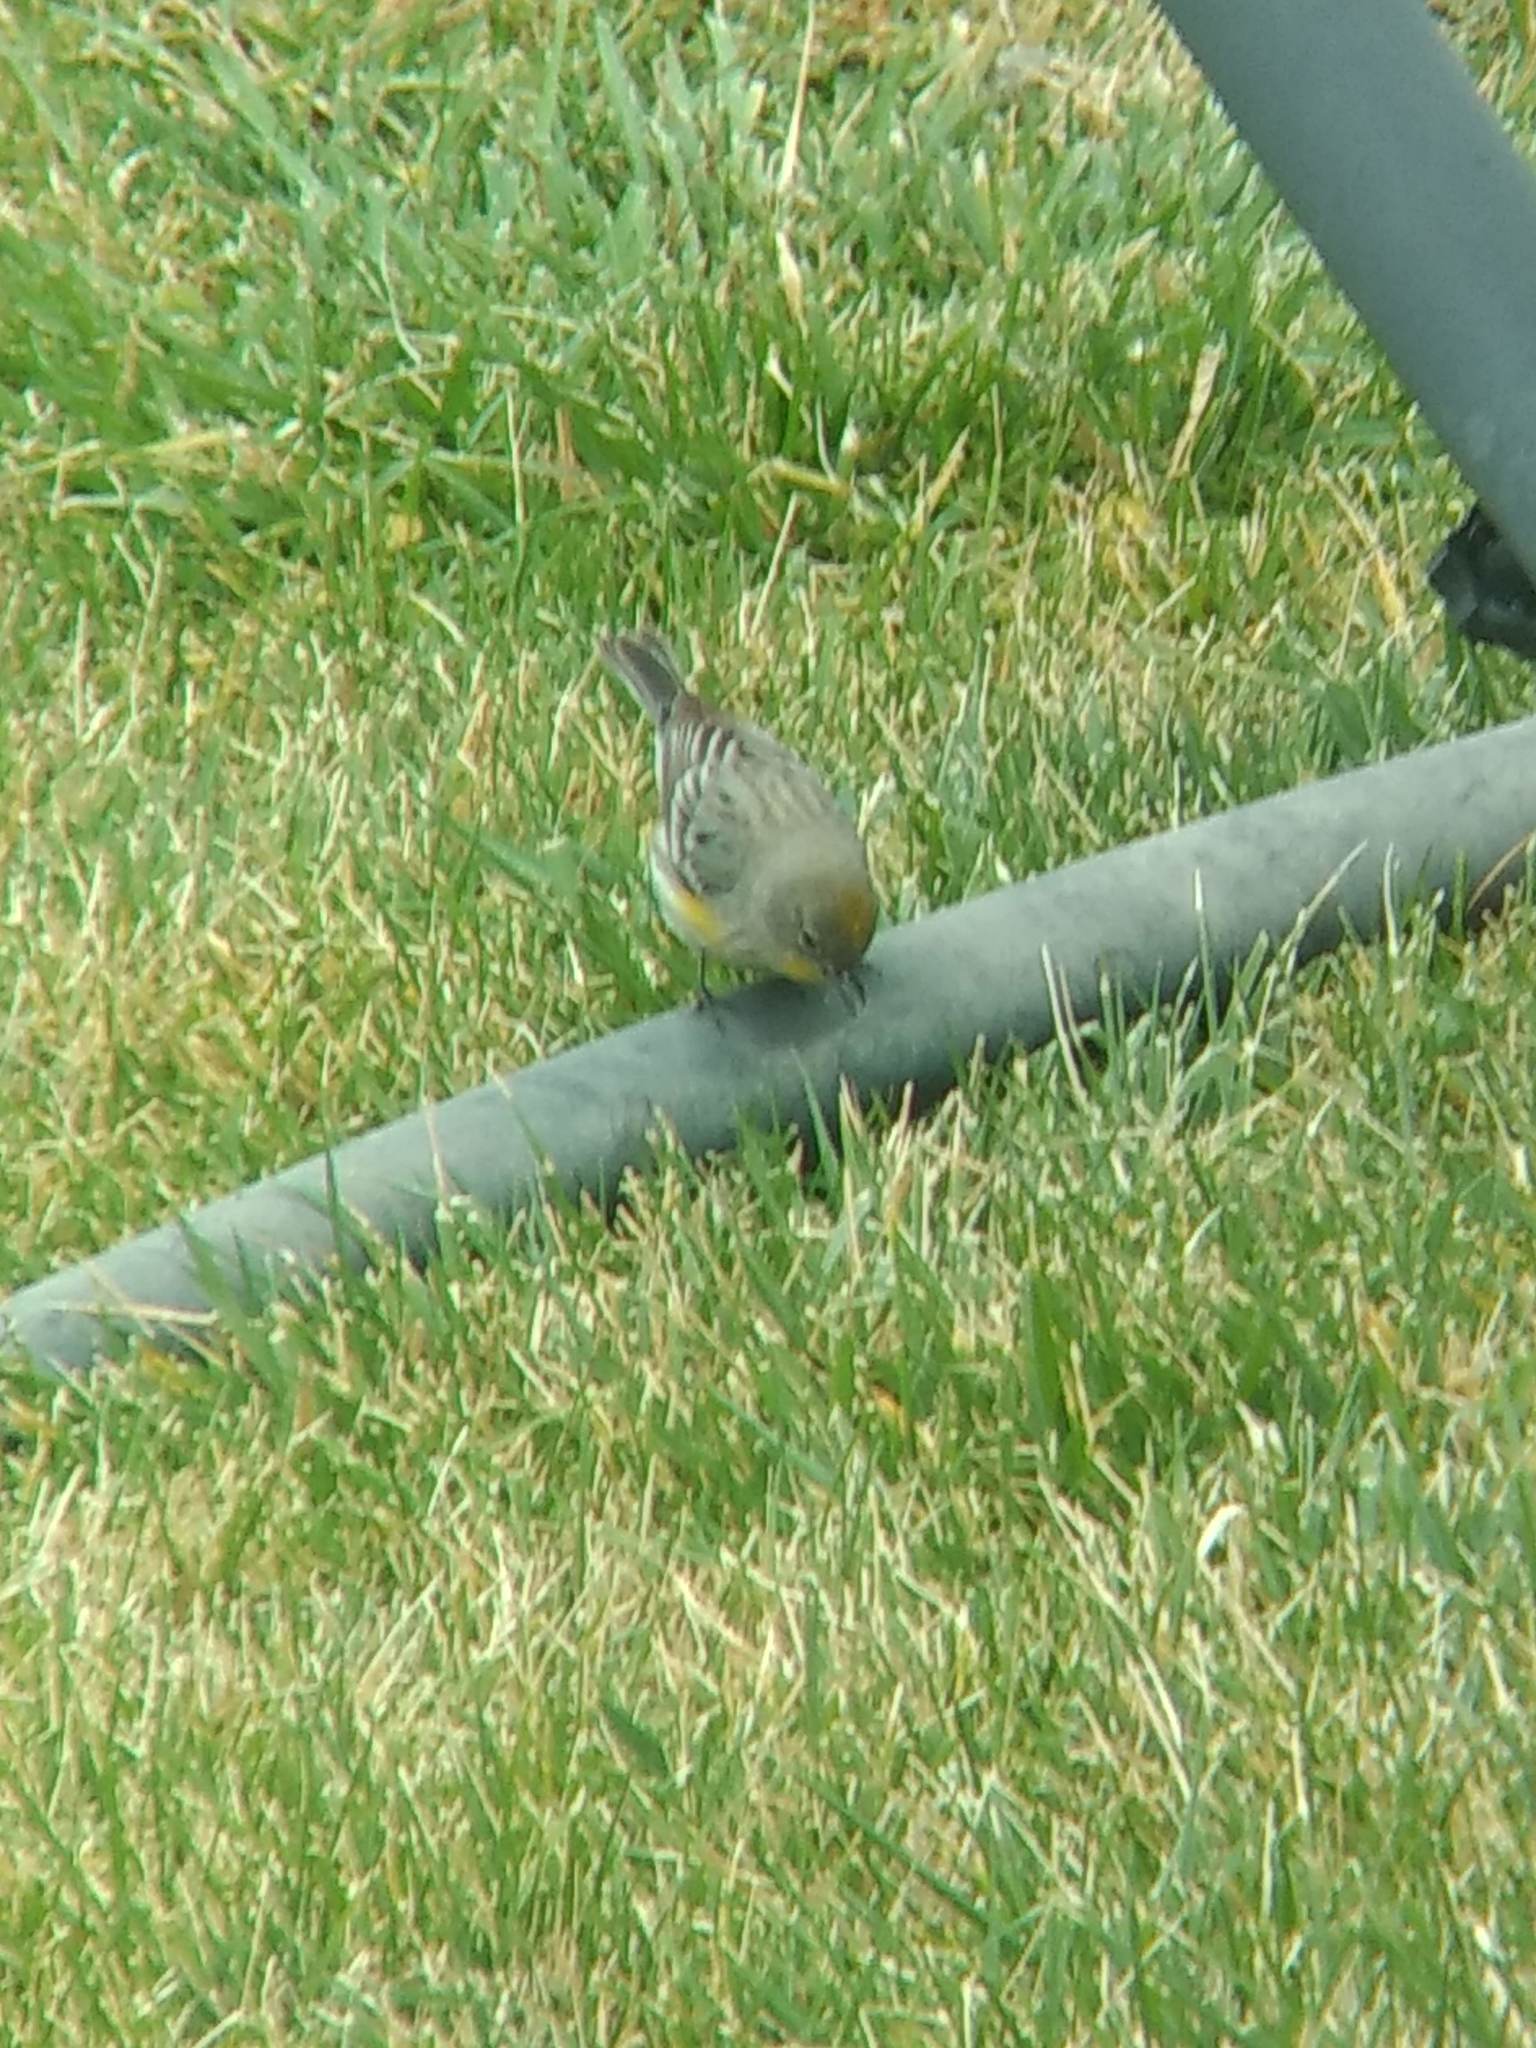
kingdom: Animalia
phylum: Chordata
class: Aves
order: Passeriformes
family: Parulidae
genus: Setophaga
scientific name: Setophaga coronata
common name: Myrtle warbler
